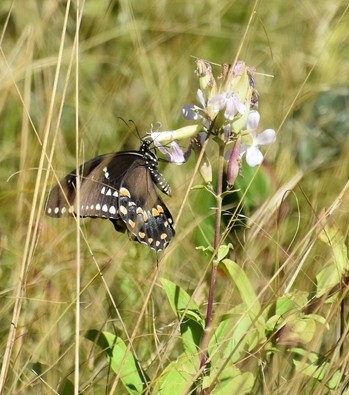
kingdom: Animalia
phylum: Arthropoda
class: Insecta
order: Lepidoptera
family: Papilionidae
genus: Papilio
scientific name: Papilio troilus
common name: Spicebush swallowtail
